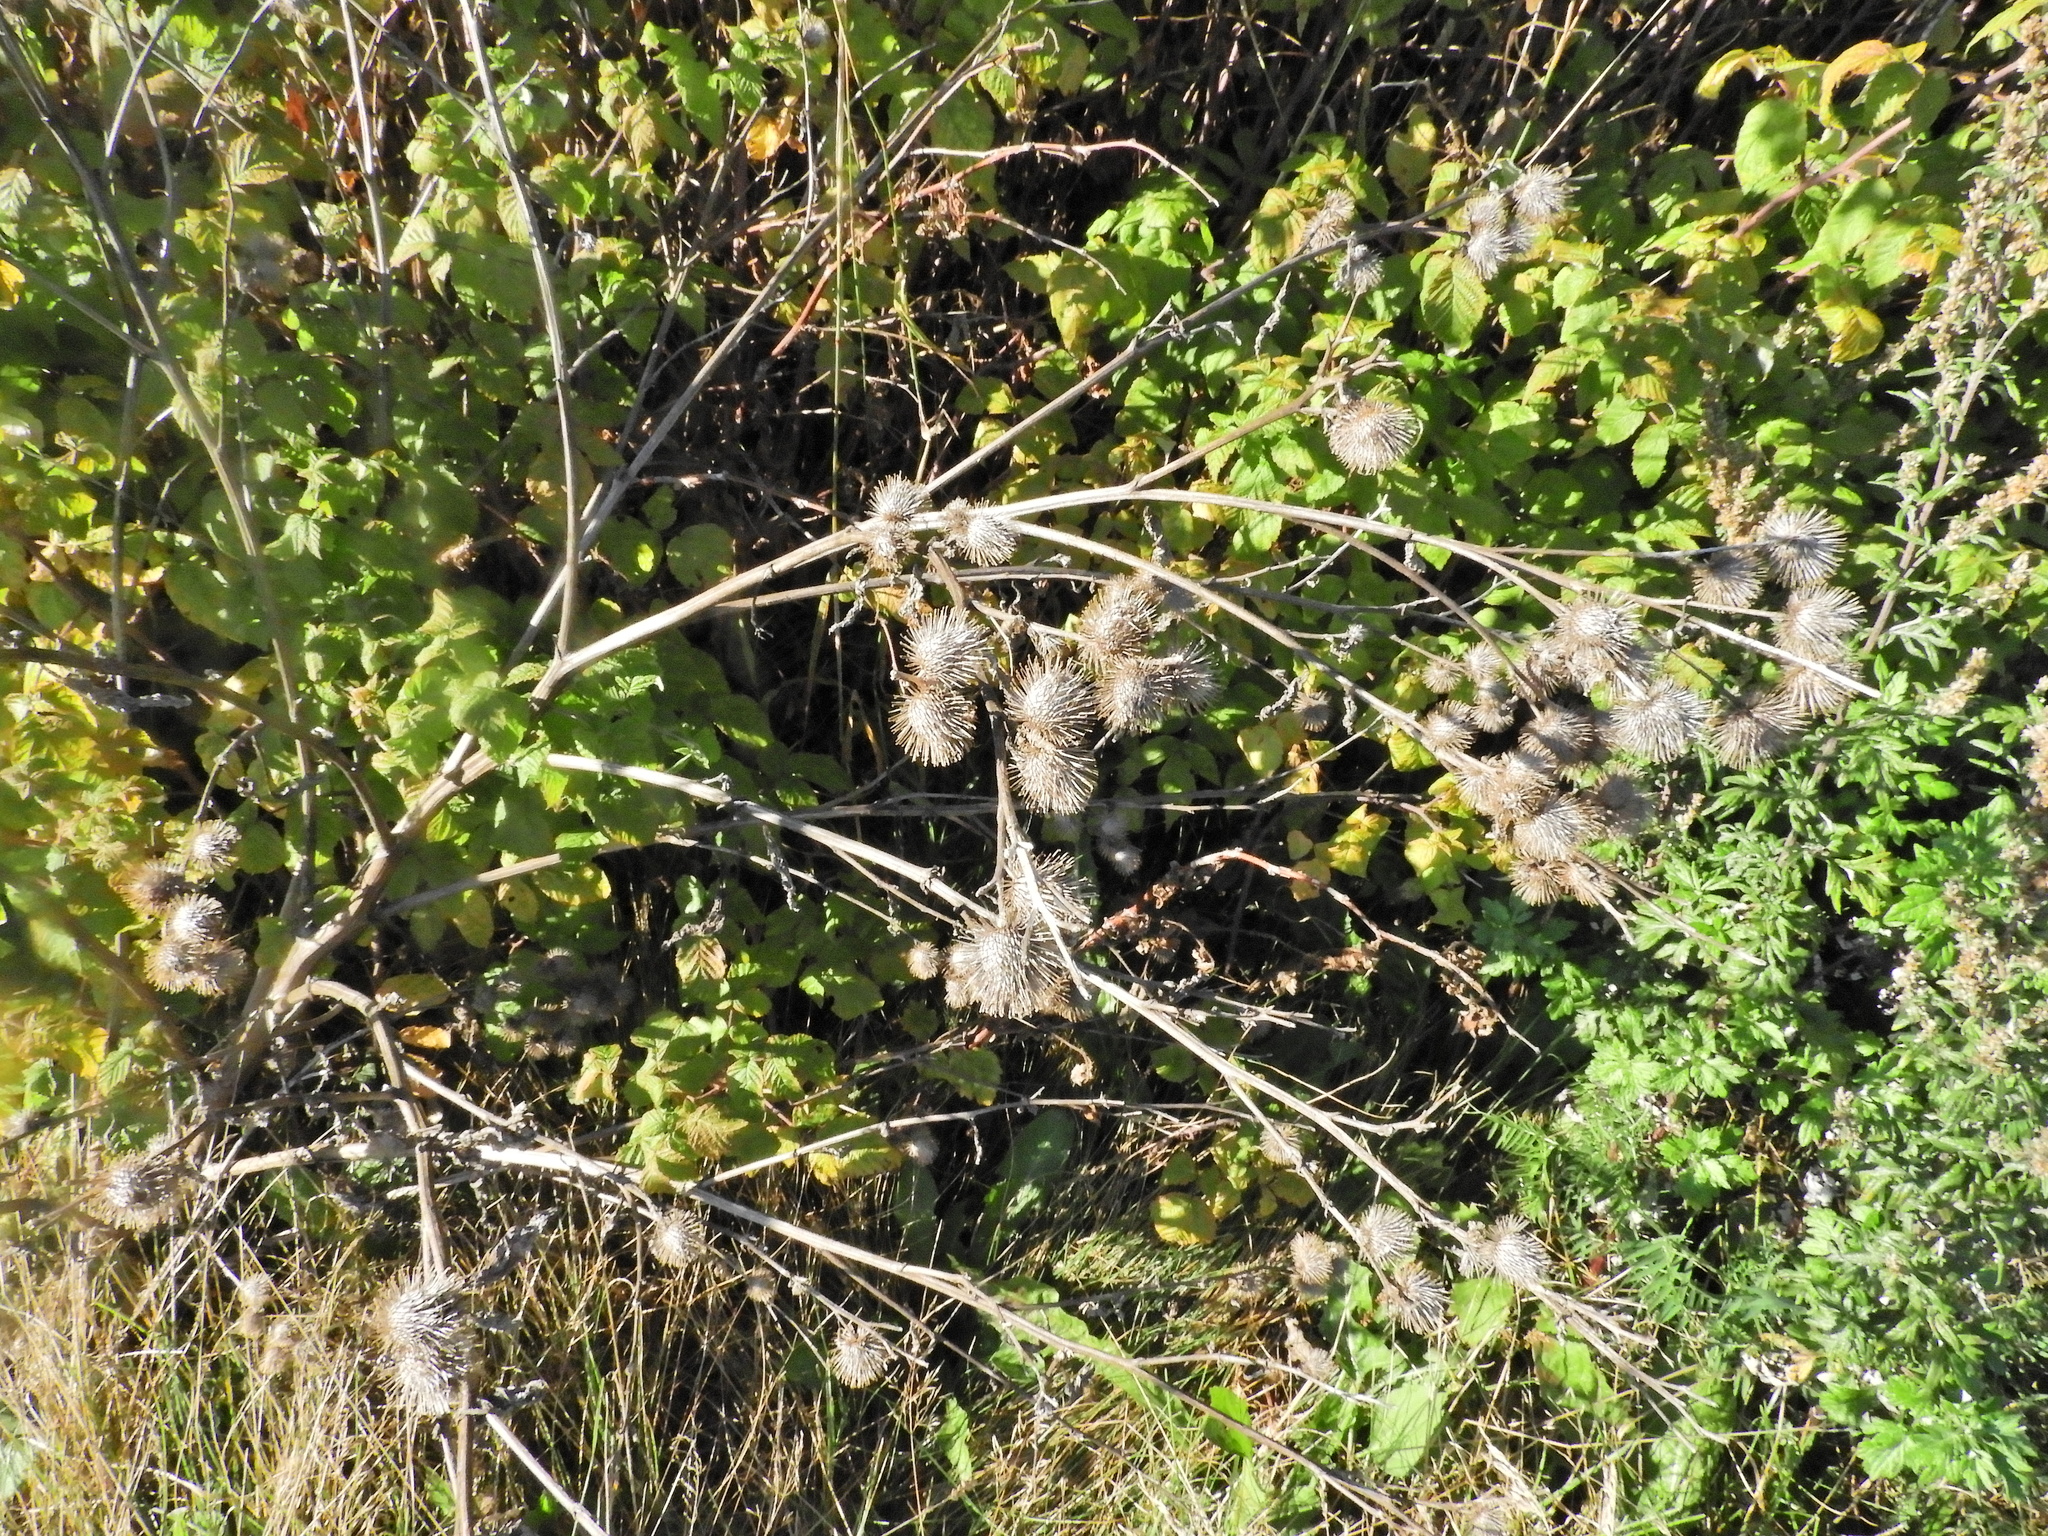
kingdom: Plantae
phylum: Tracheophyta
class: Magnoliopsida
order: Asterales
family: Asteraceae
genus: Arctium
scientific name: Arctium minus
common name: Lesser burdock
